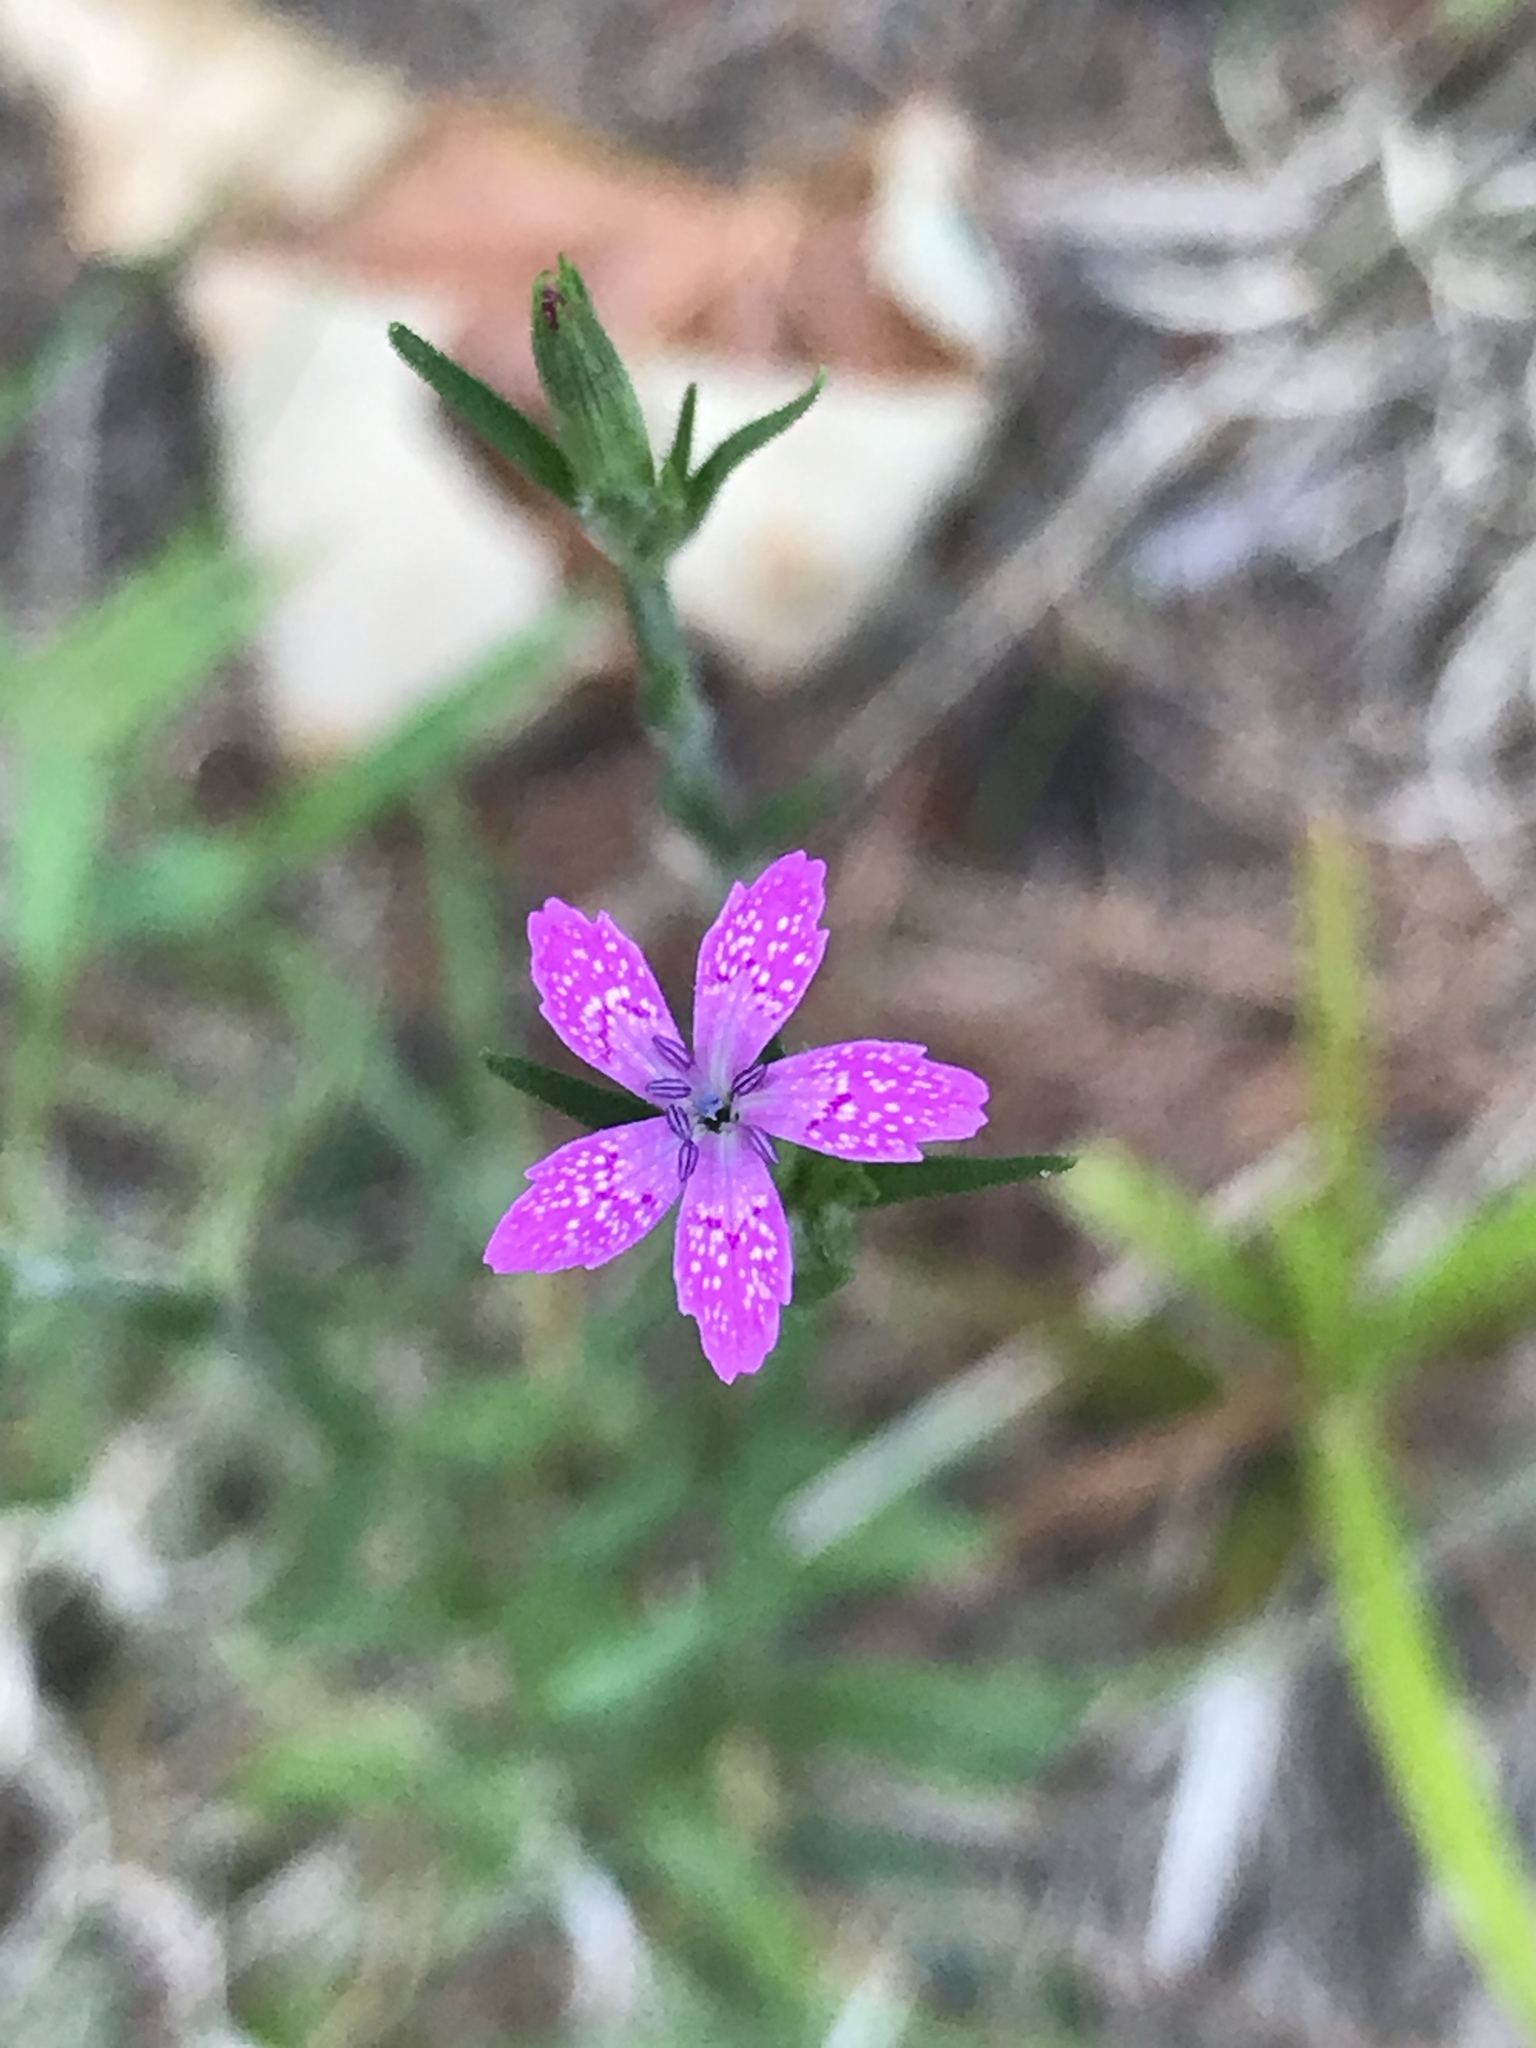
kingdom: Plantae
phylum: Tracheophyta
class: Magnoliopsida
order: Caryophyllales
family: Caryophyllaceae
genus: Dianthus
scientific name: Dianthus armeria
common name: Deptford pink
